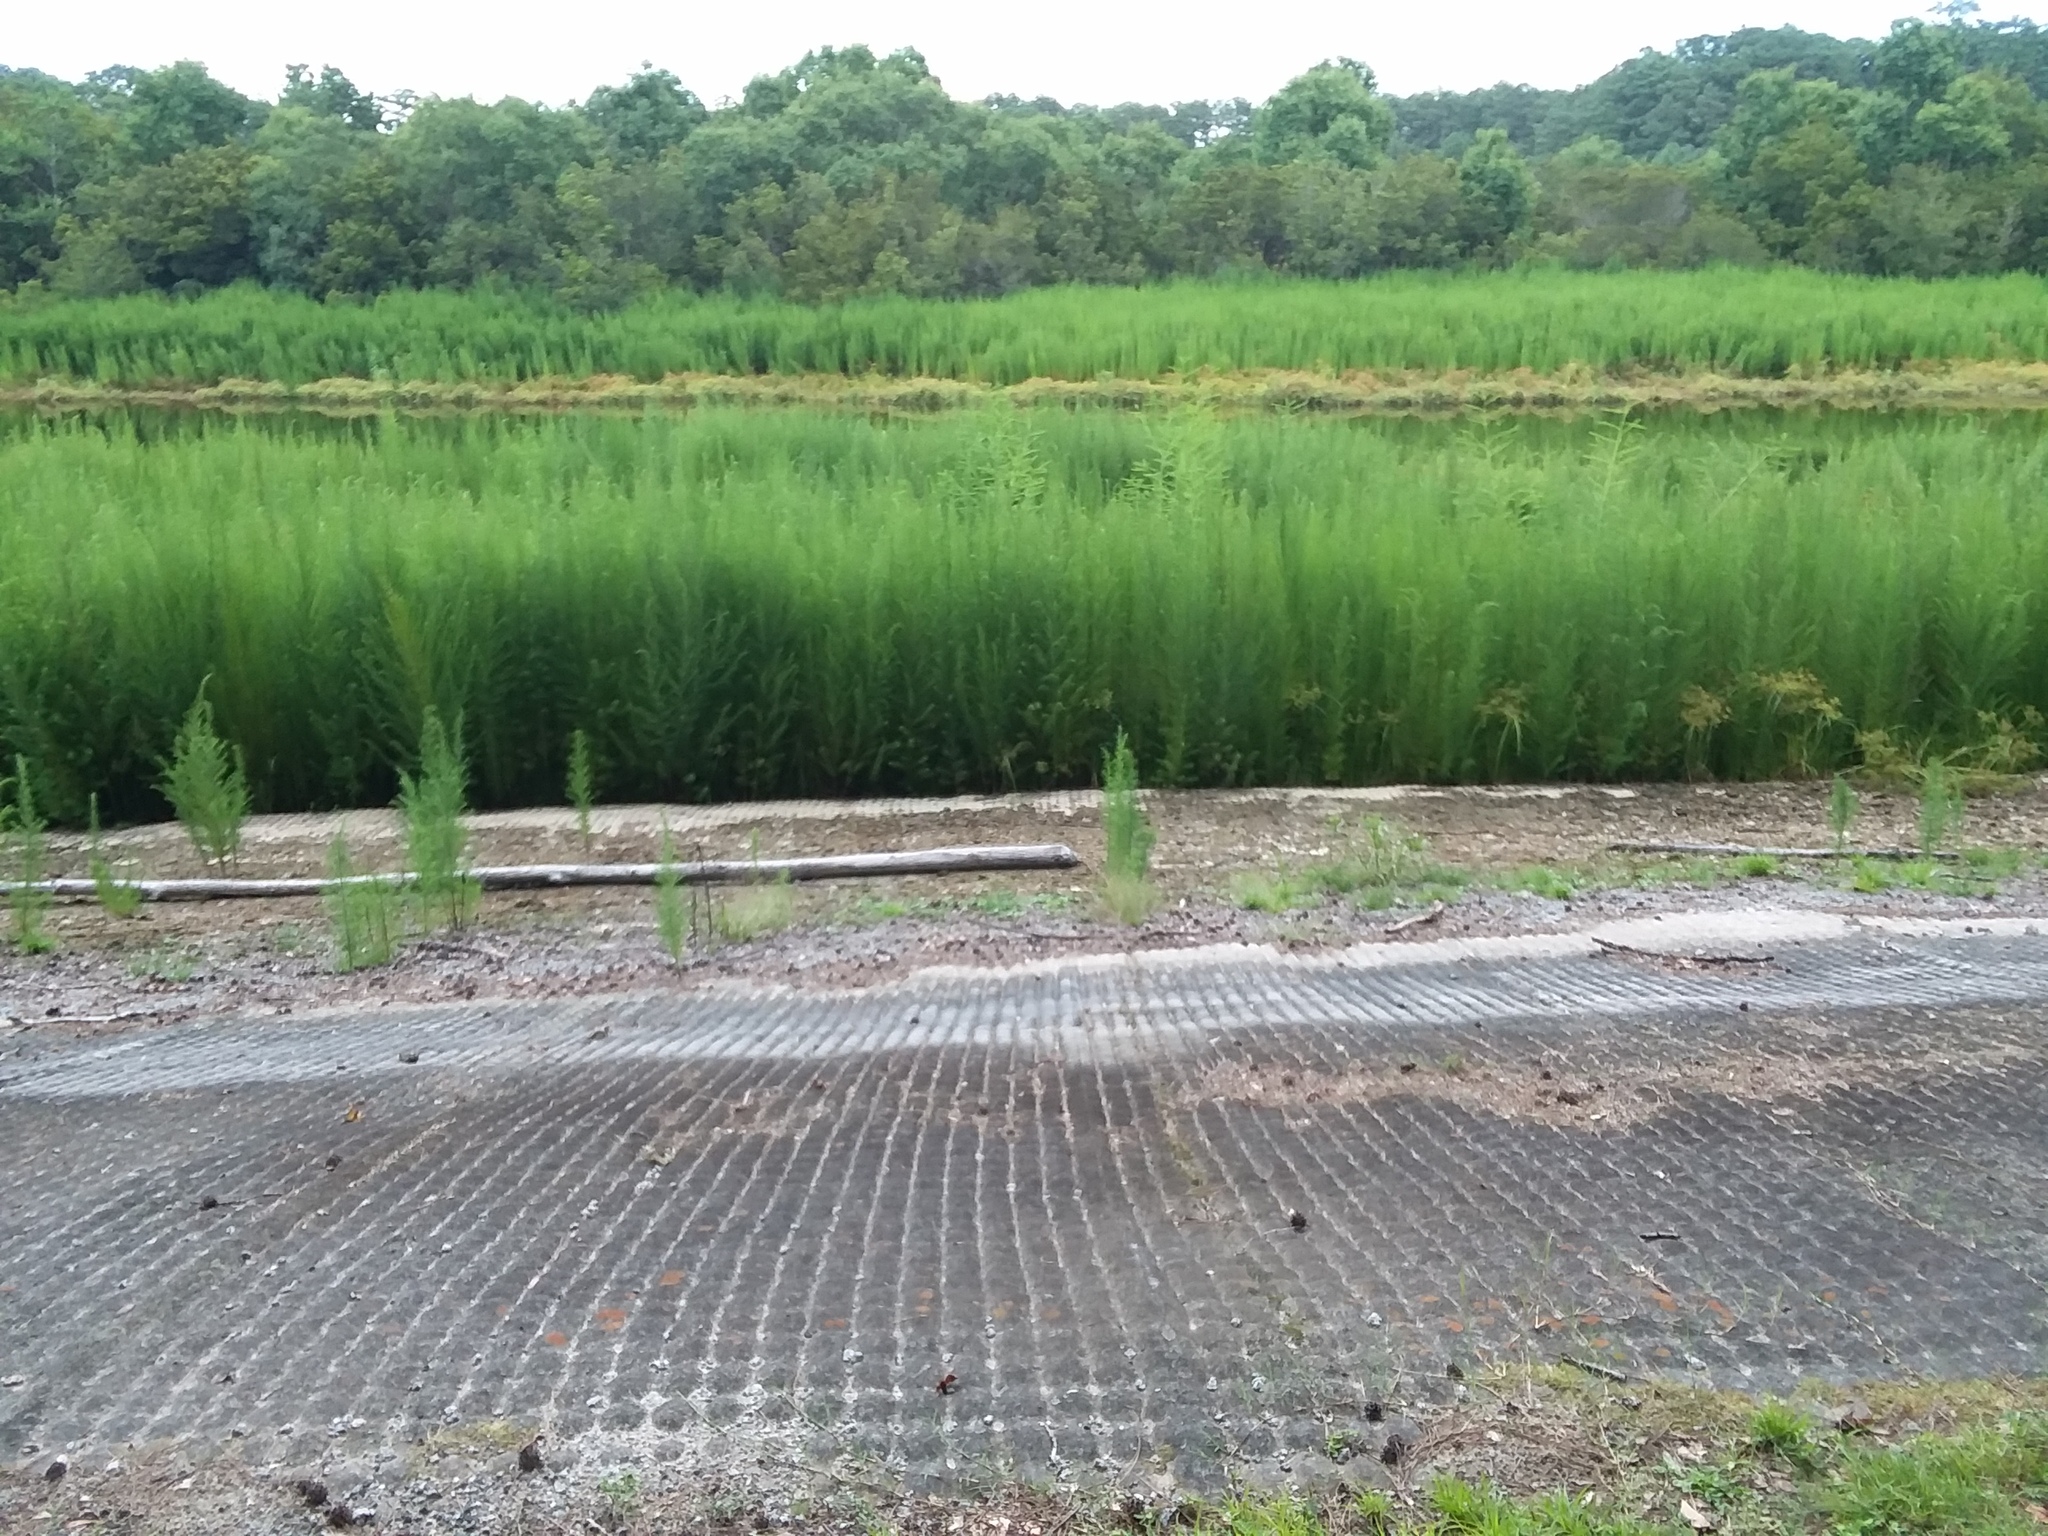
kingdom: Plantae
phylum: Tracheophyta
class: Magnoliopsida
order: Asterales
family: Asteraceae
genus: Eupatorium
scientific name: Eupatorium capillifolium
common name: Dog-fennel
